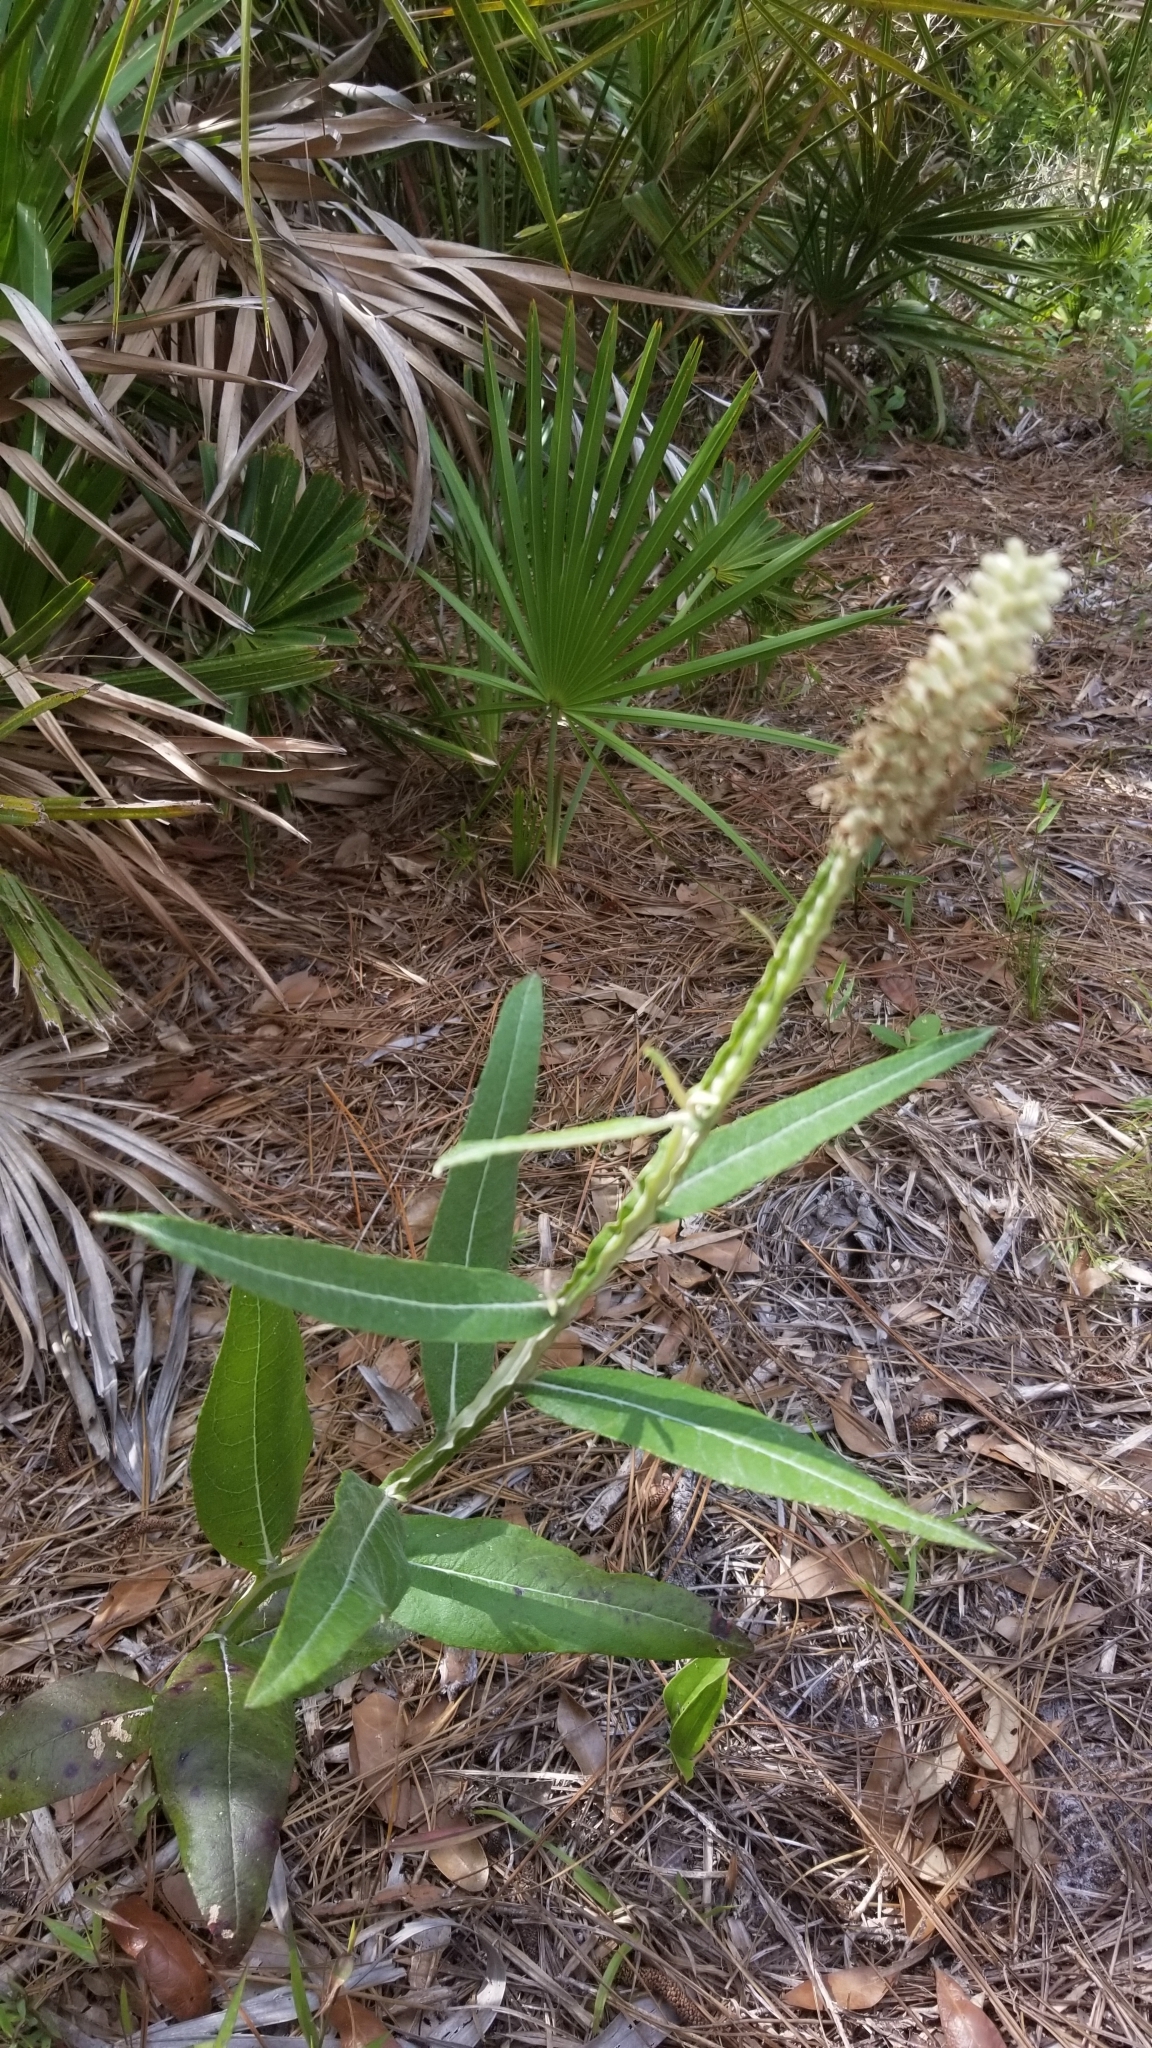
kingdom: Plantae
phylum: Tracheophyta
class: Magnoliopsida
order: Asterales
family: Asteraceae
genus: Pterocaulon
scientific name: Pterocaulon pycnostachyum
